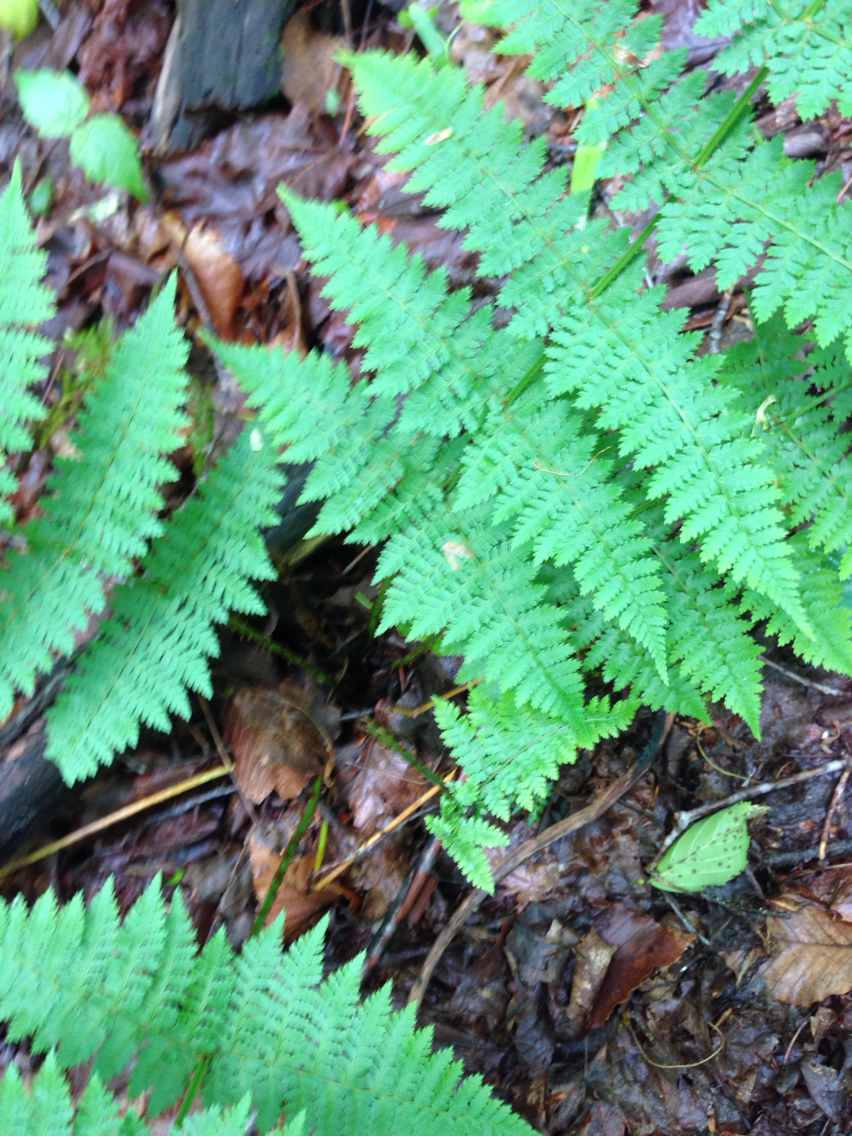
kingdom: Plantae
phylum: Tracheophyta
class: Polypodiopsida
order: Polypodiales
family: Dryopteridaceae
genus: Dryopteris
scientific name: Dryopteris intermedia
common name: Evergreen wood fern
